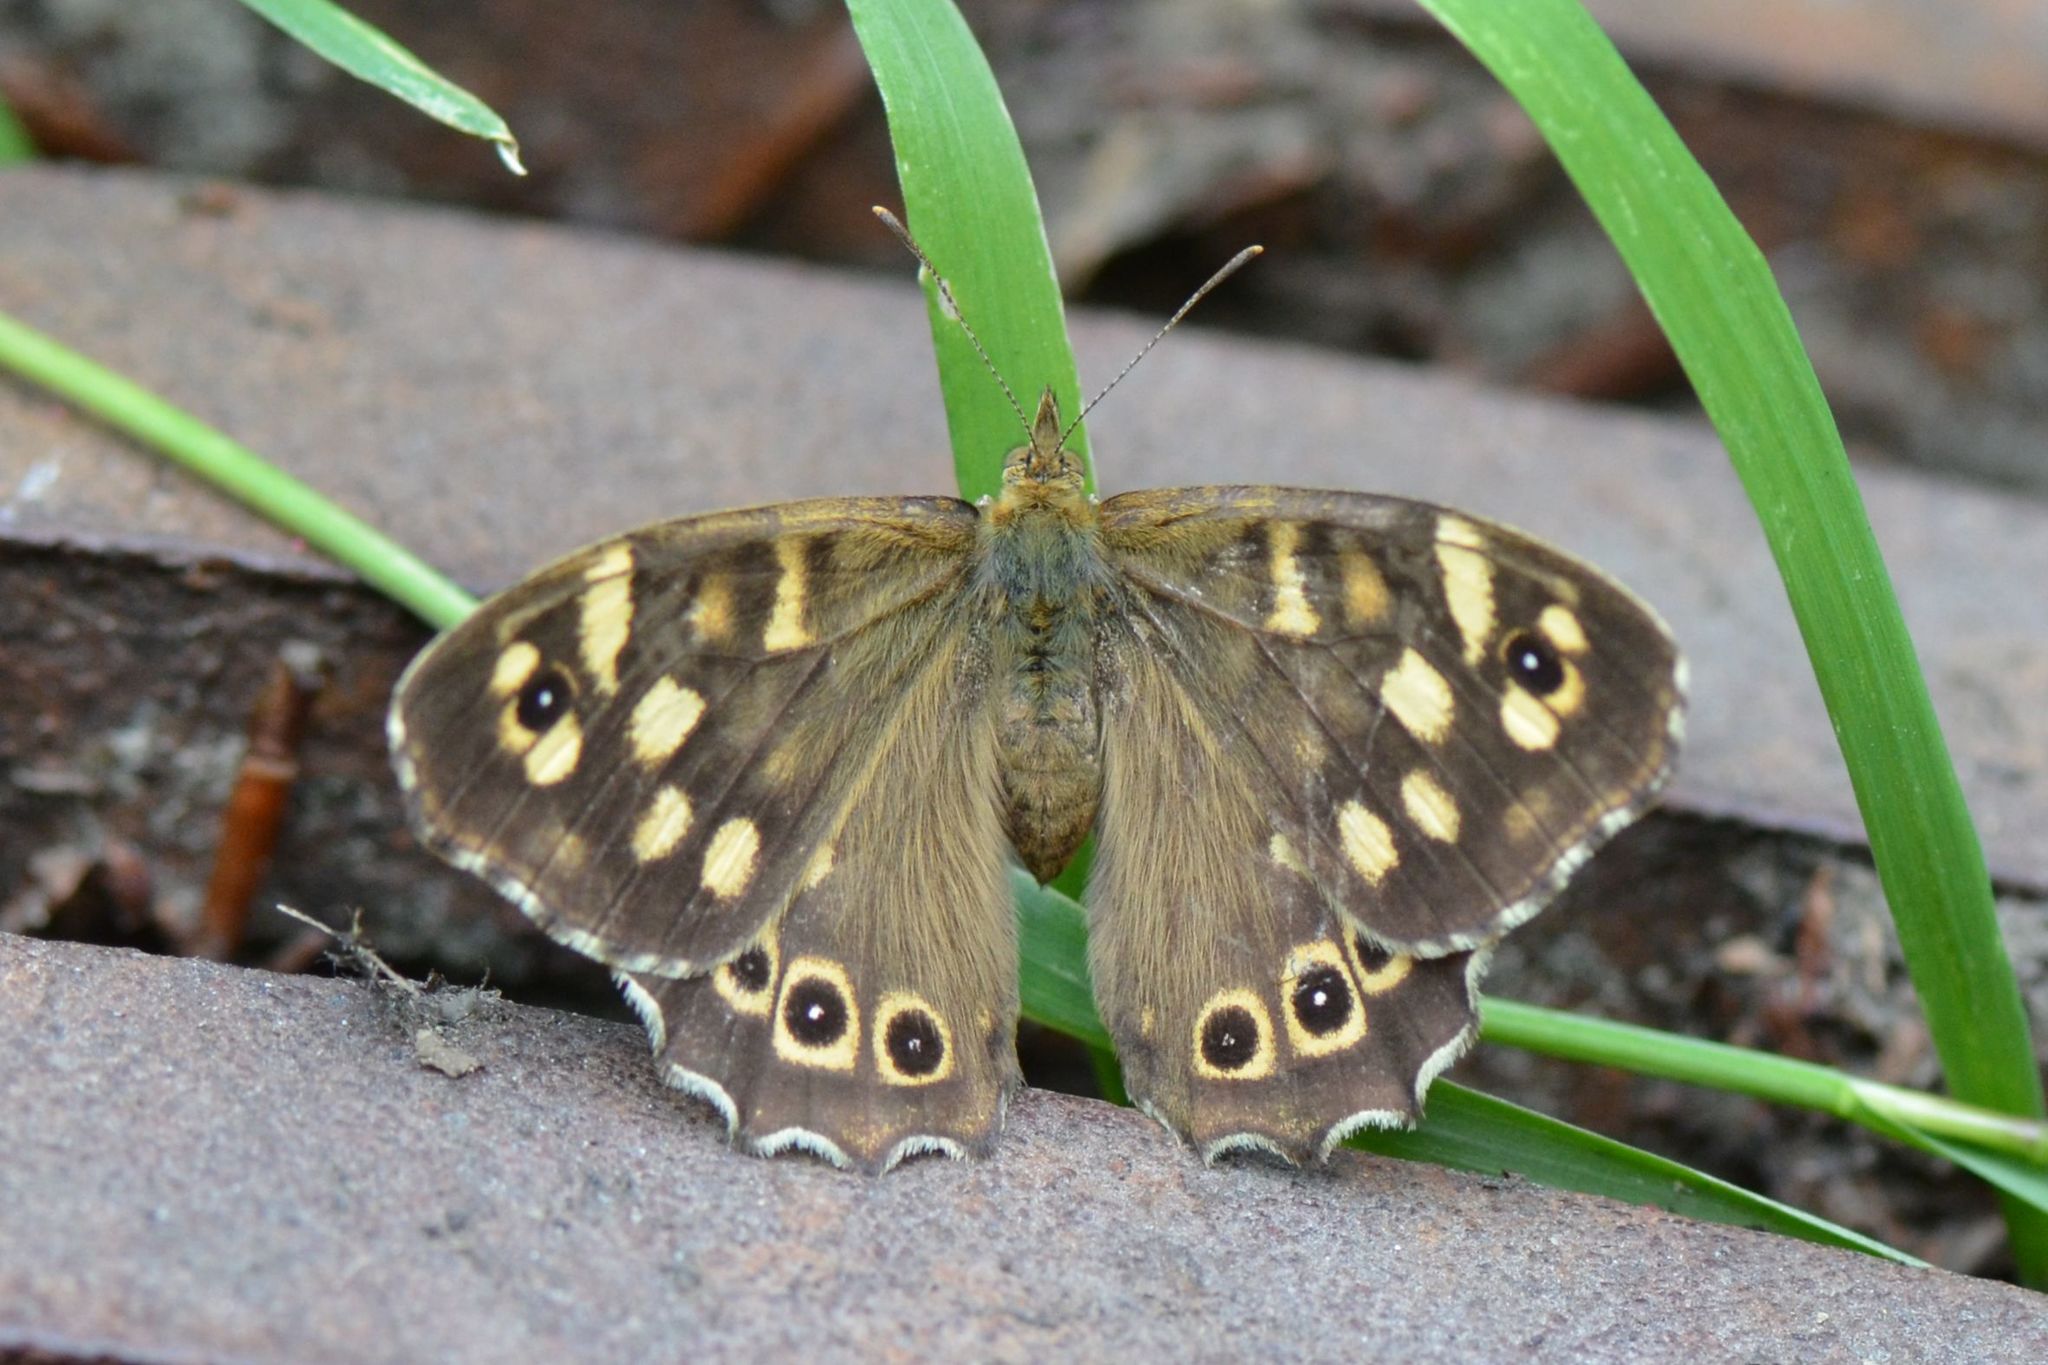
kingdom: Animalia
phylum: Arthropoda
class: Insecta
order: Lepidoptera
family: Nymphalidae
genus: Pararge
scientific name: Pararge aegeria
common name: Speckled wood
